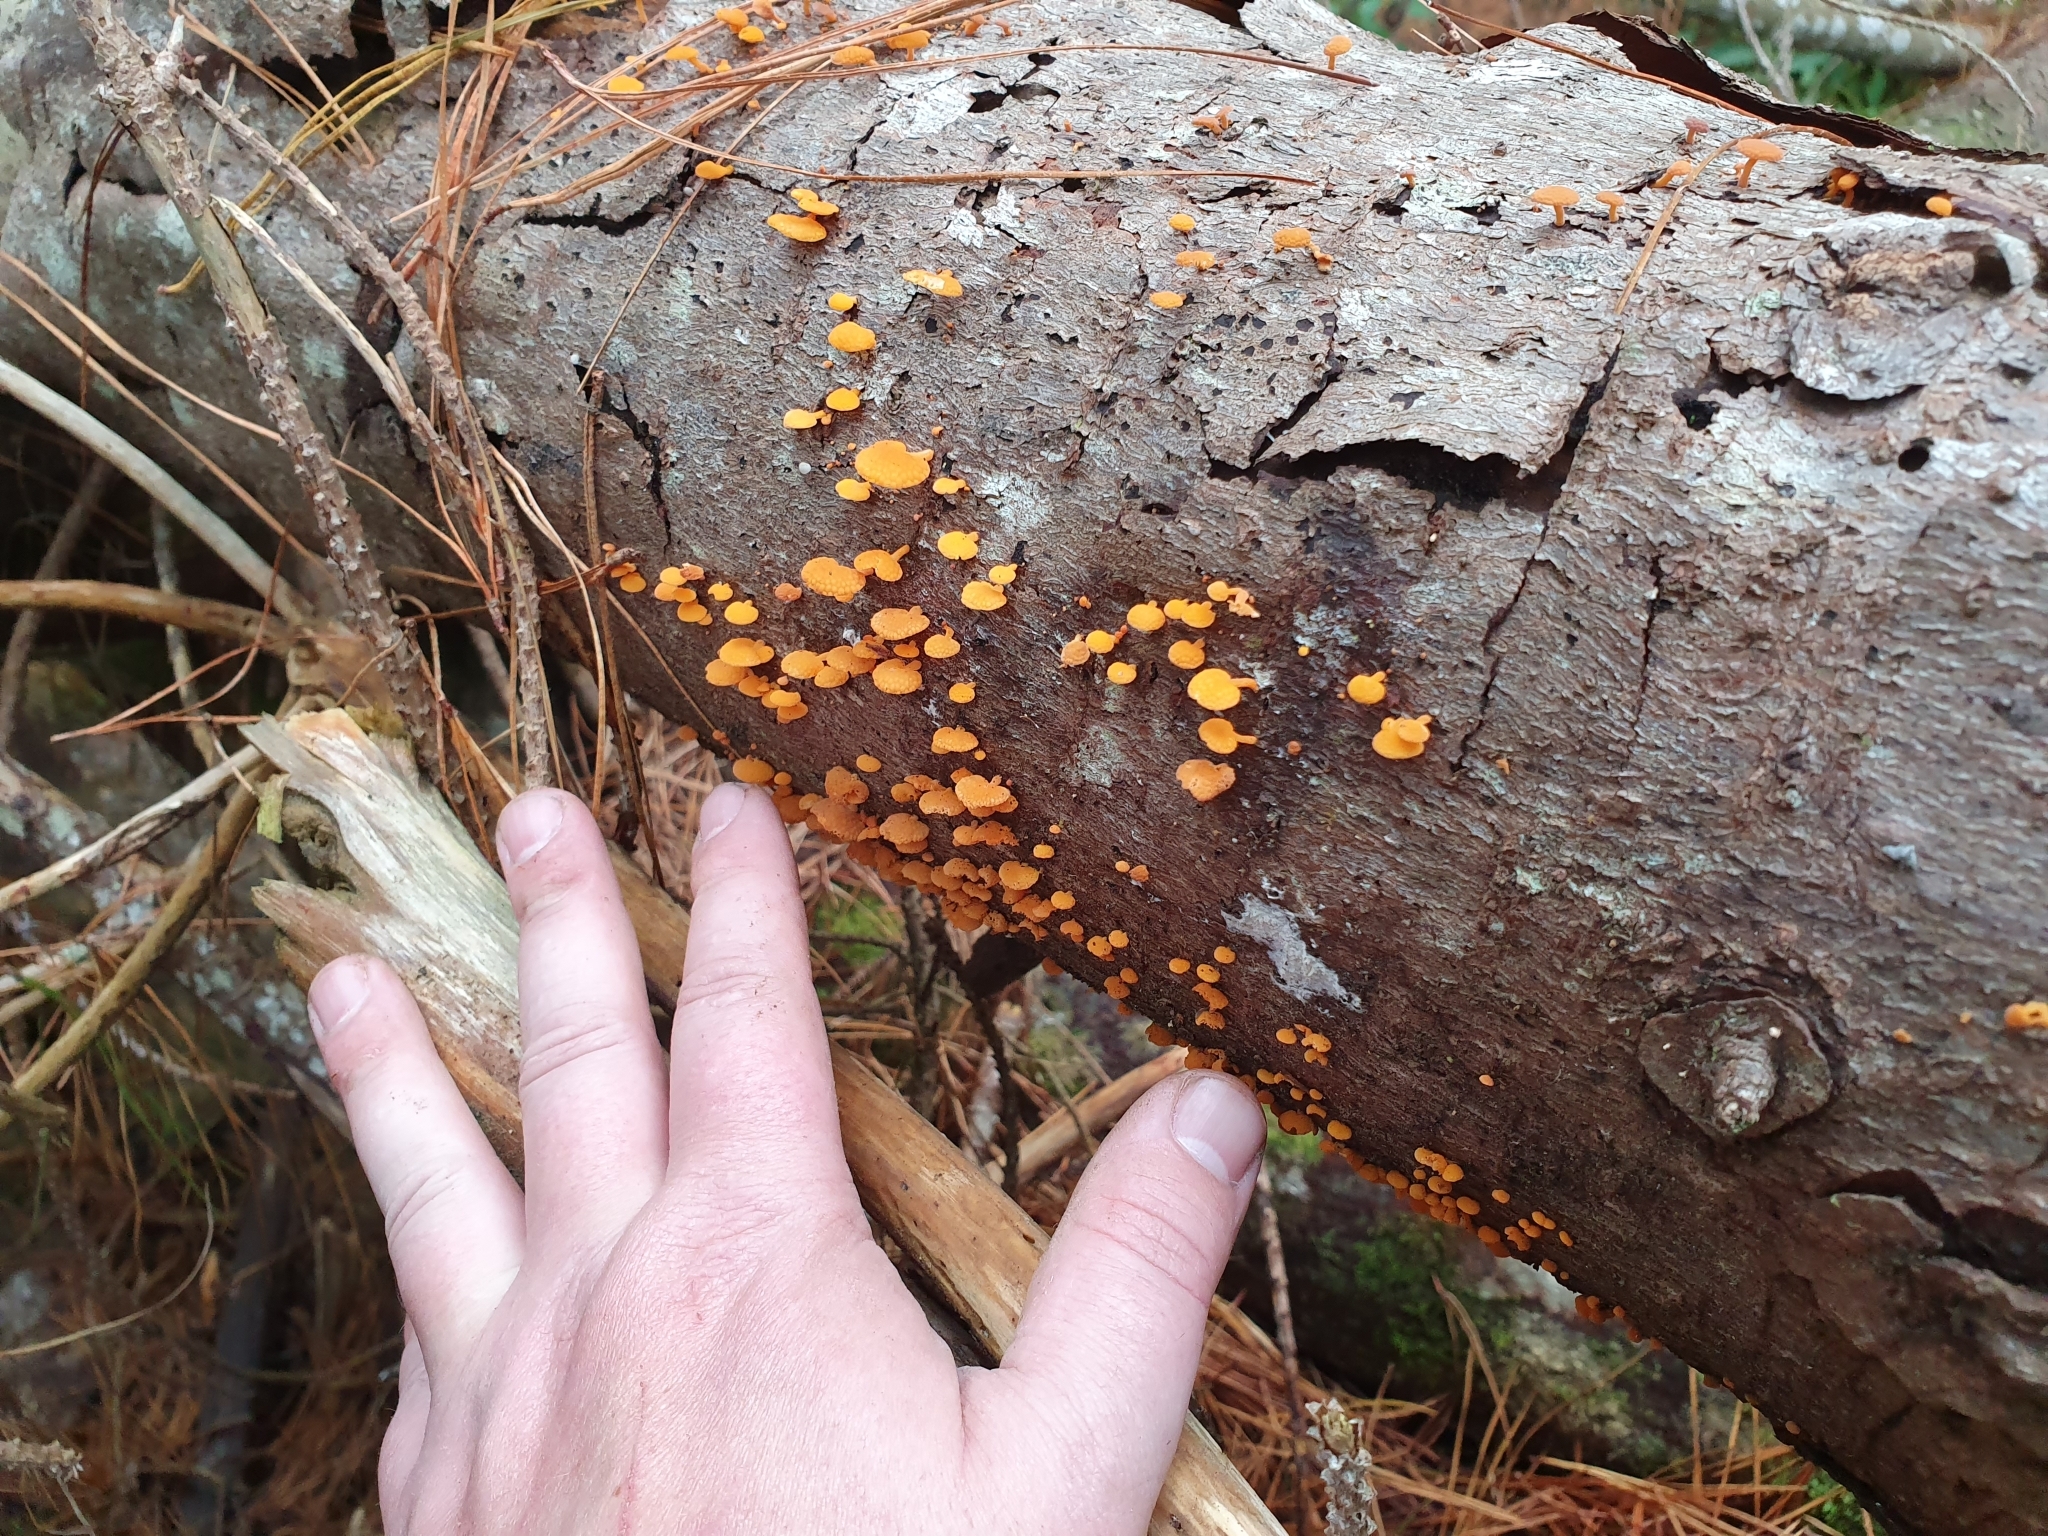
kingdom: Fungi
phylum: Basidiomycota
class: Agaricomycetes
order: Agaricales
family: Mycenaceae
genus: Favolaschia
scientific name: Favolaschia claudopus
